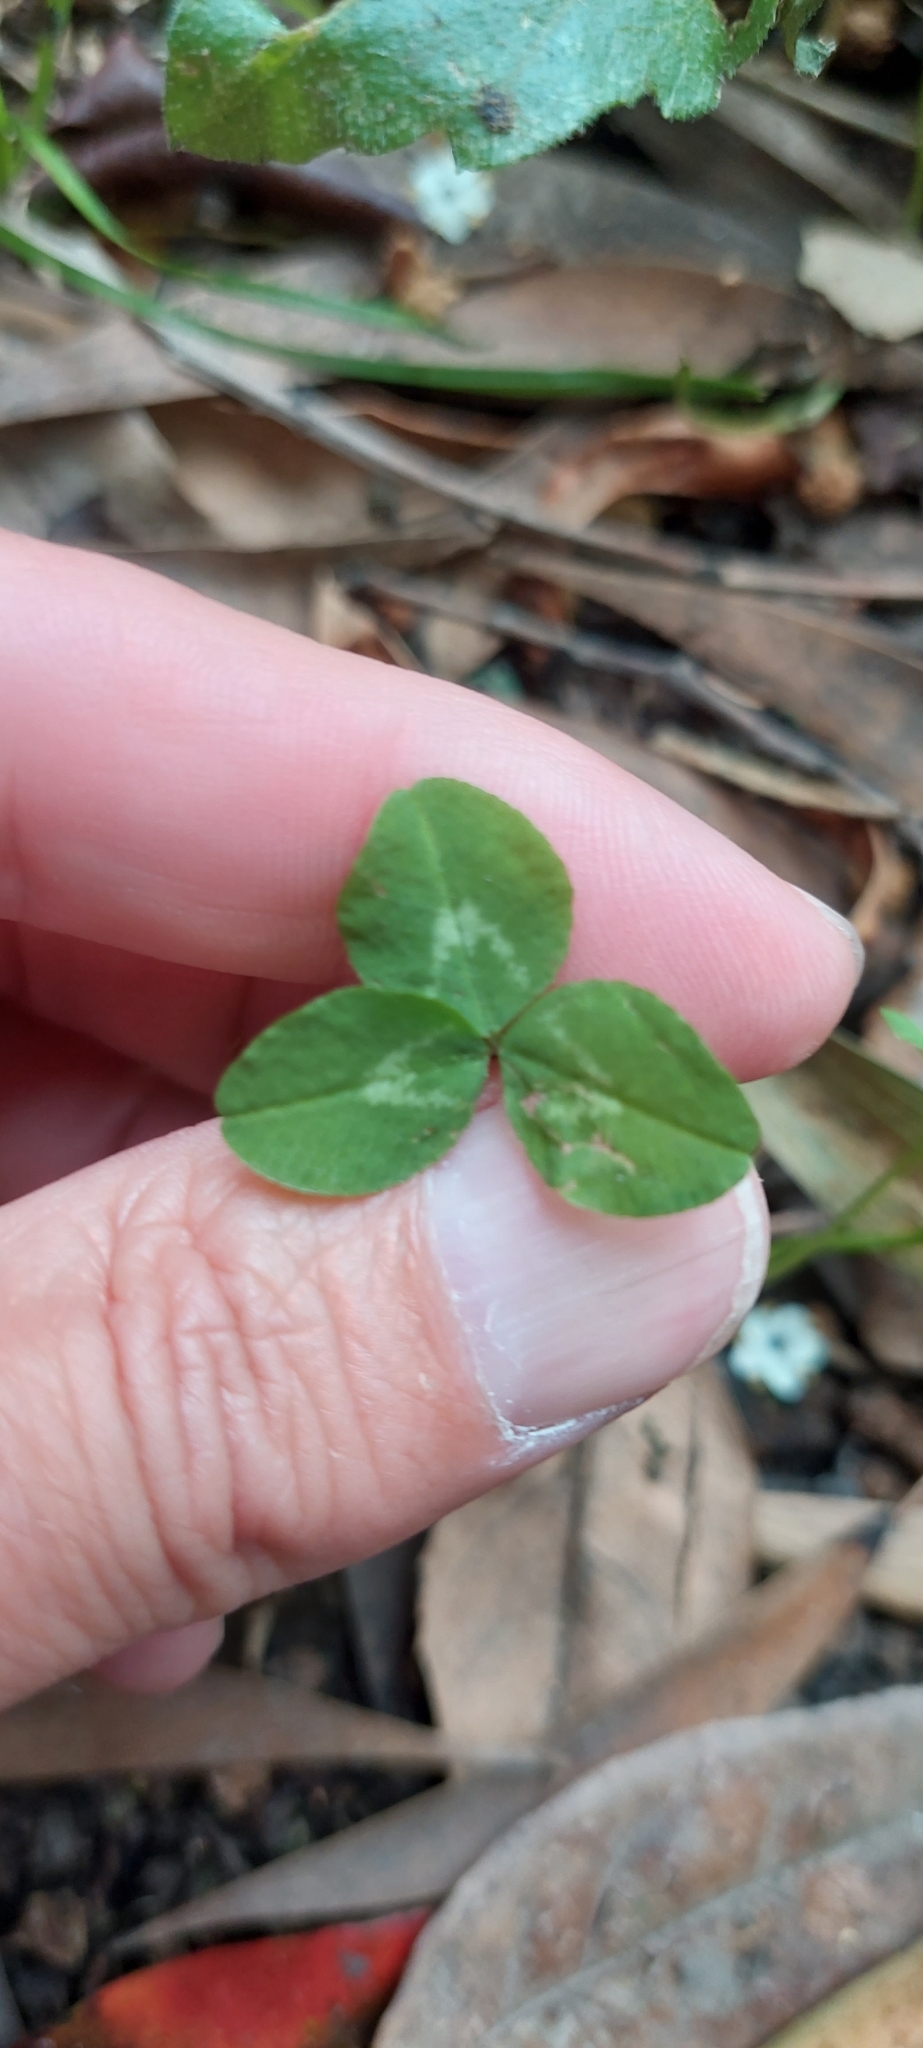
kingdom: Plantae
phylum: Tracheophyta
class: Magnoliopsida
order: Fabales
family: Fabaceae
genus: Trifolium
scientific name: Trifolium repens
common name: White clover
